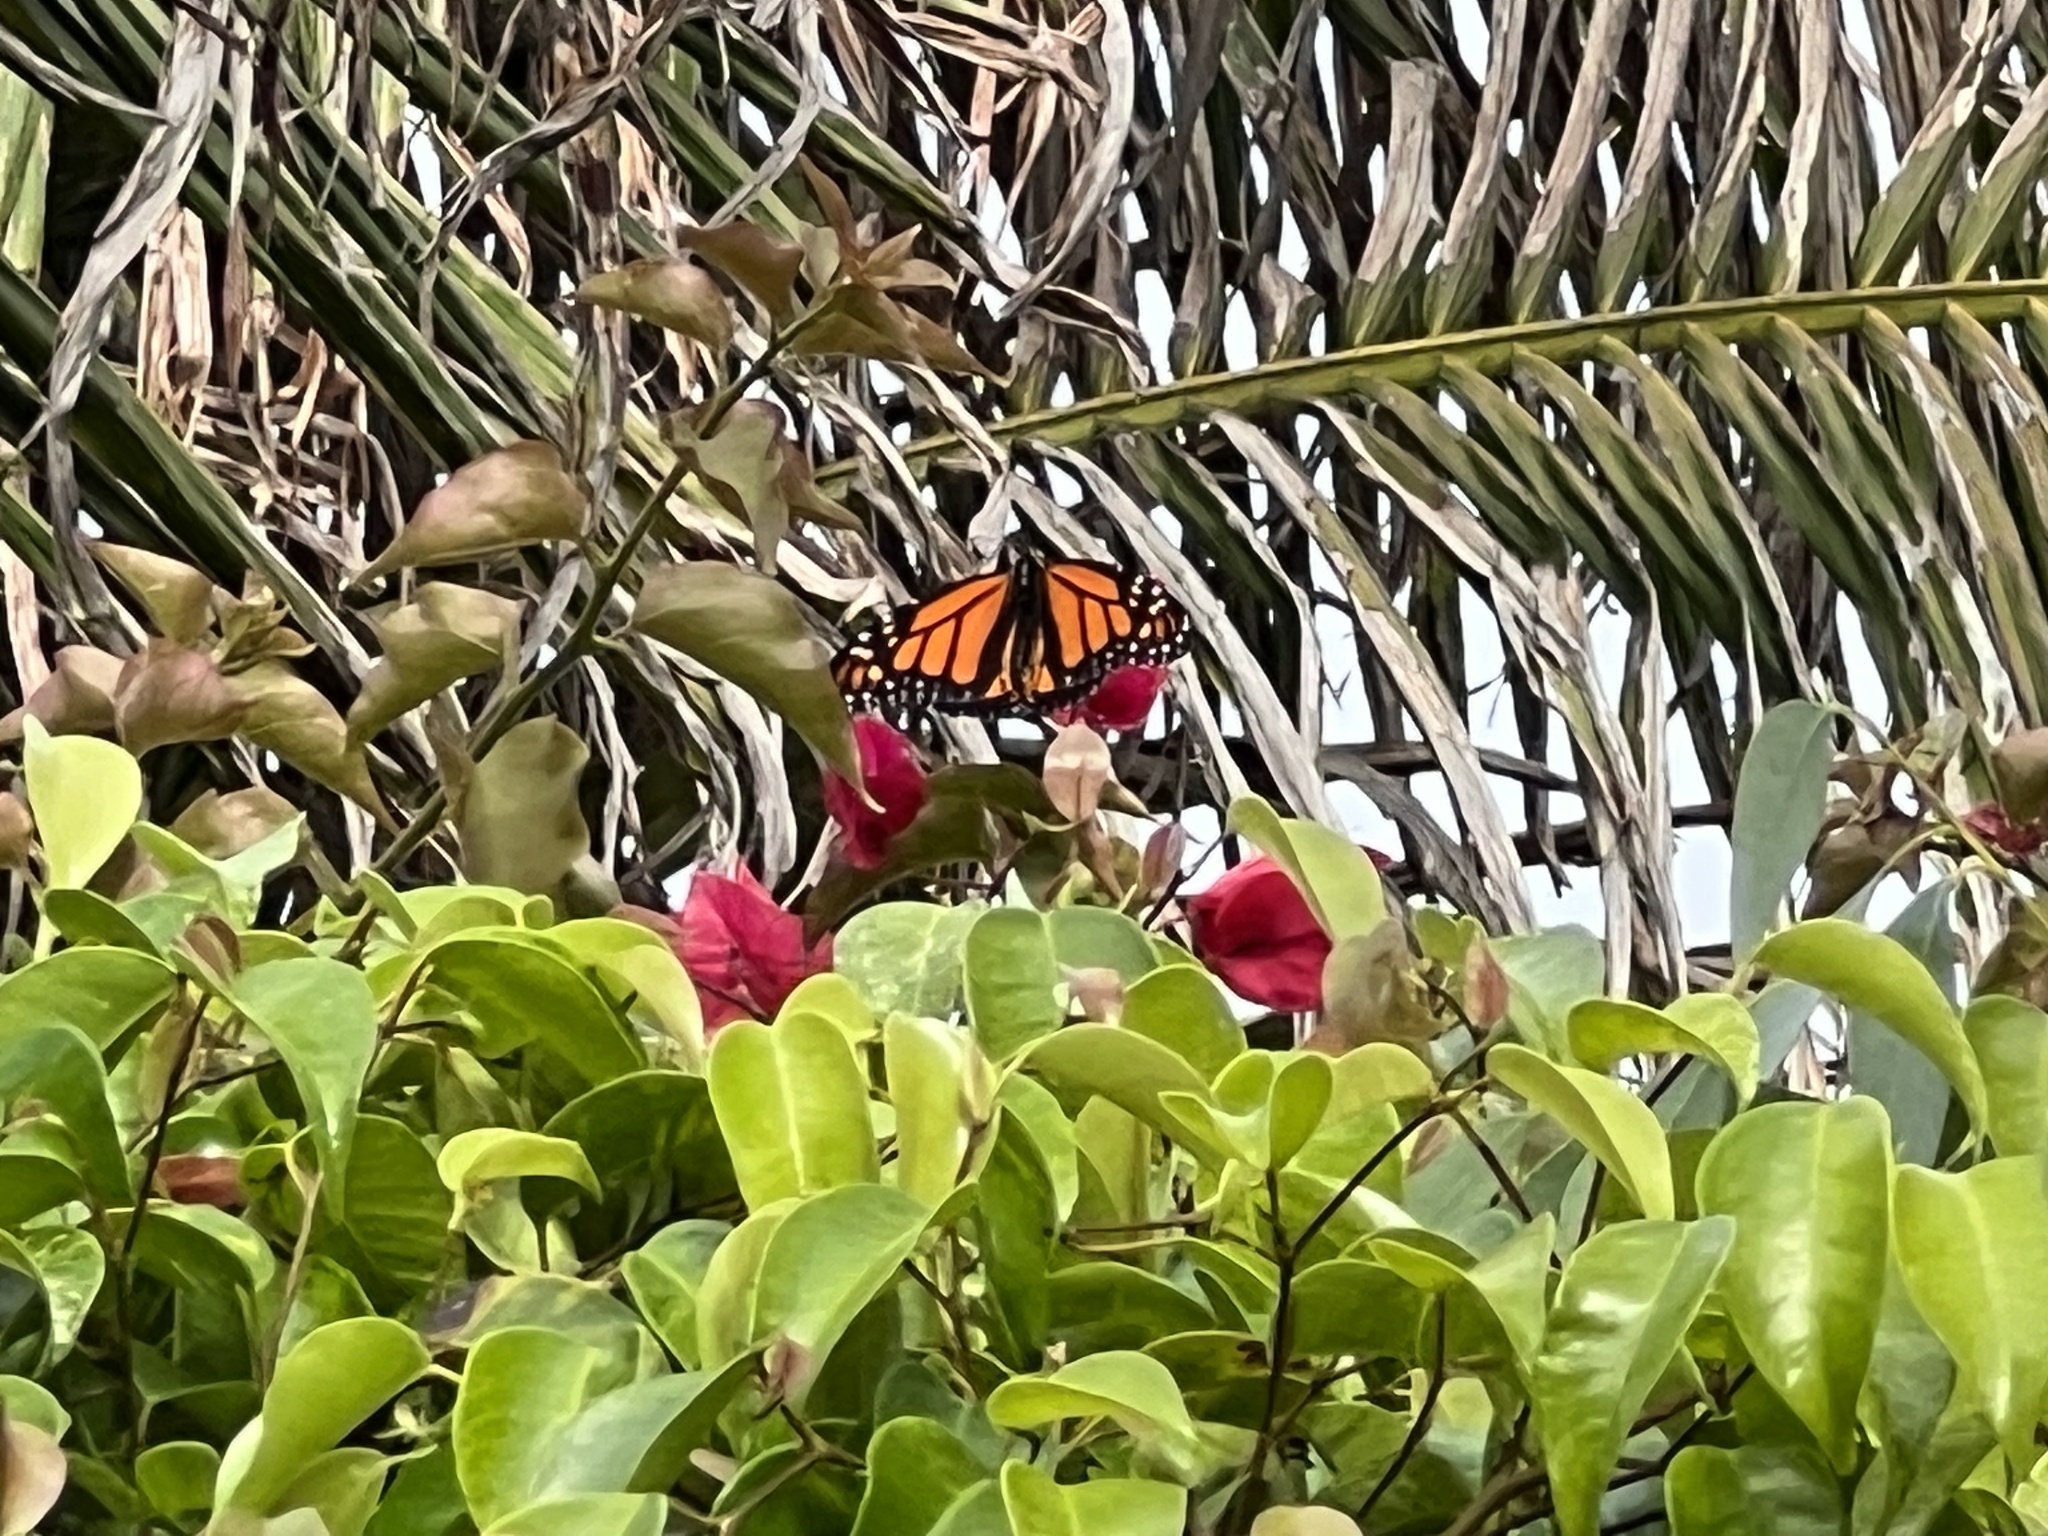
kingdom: Animalia
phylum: Arthropoda
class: Insecta
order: Lepidoptera
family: Nymphalidae
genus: Danaus
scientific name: Danaus plexippus
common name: Monarch
